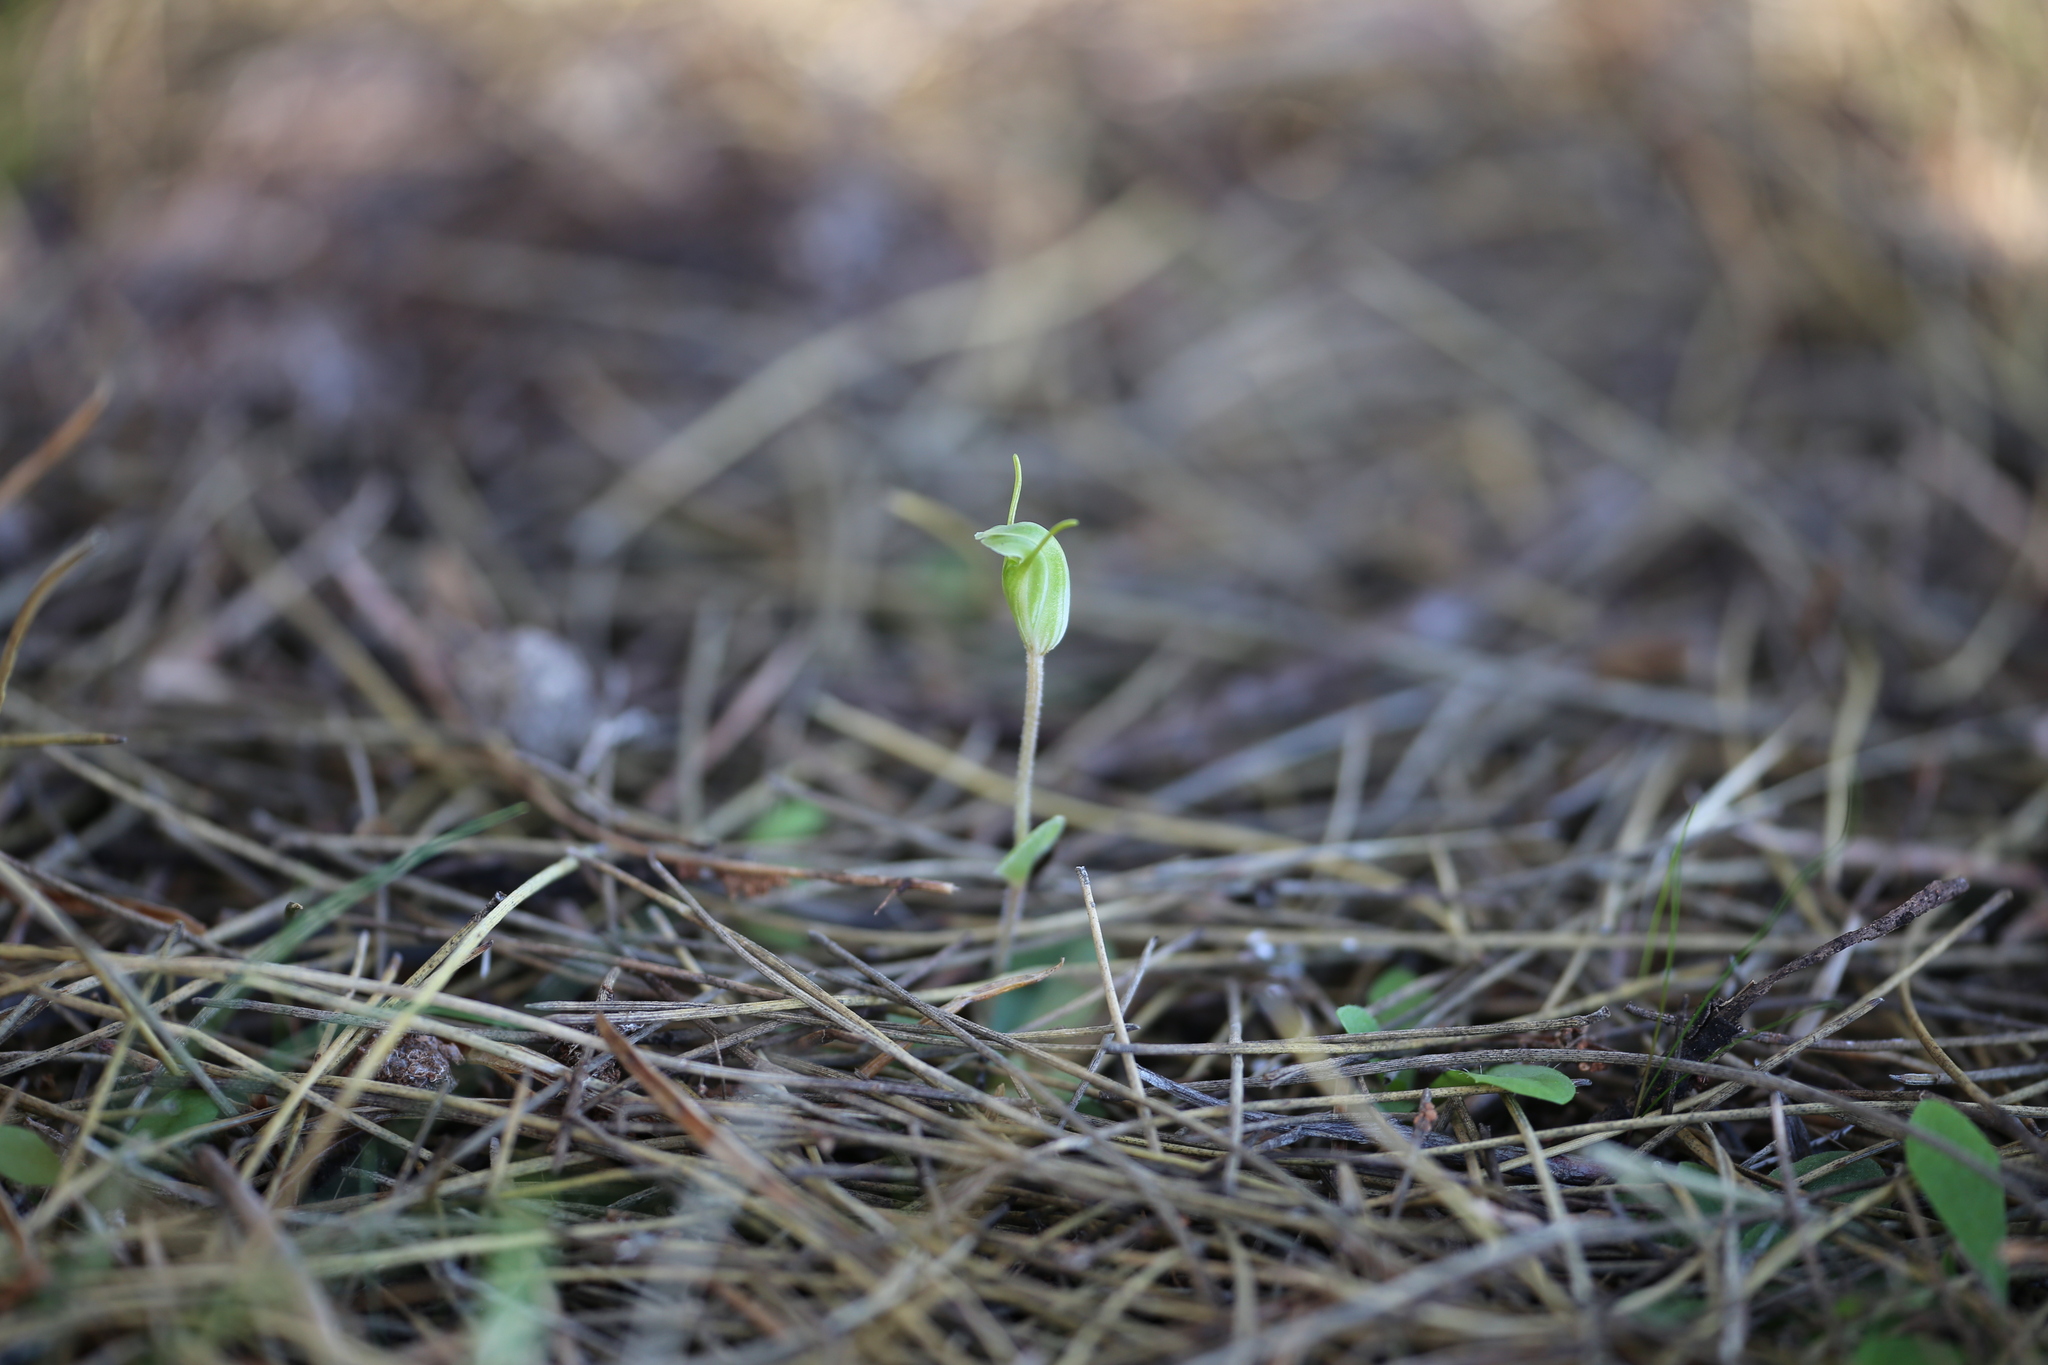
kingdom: Plantae
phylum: Tracheophyta
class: Liliopsida
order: Asparagales
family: Orchidaceae
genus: Pterostylis
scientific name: Pterostylis setulosa
